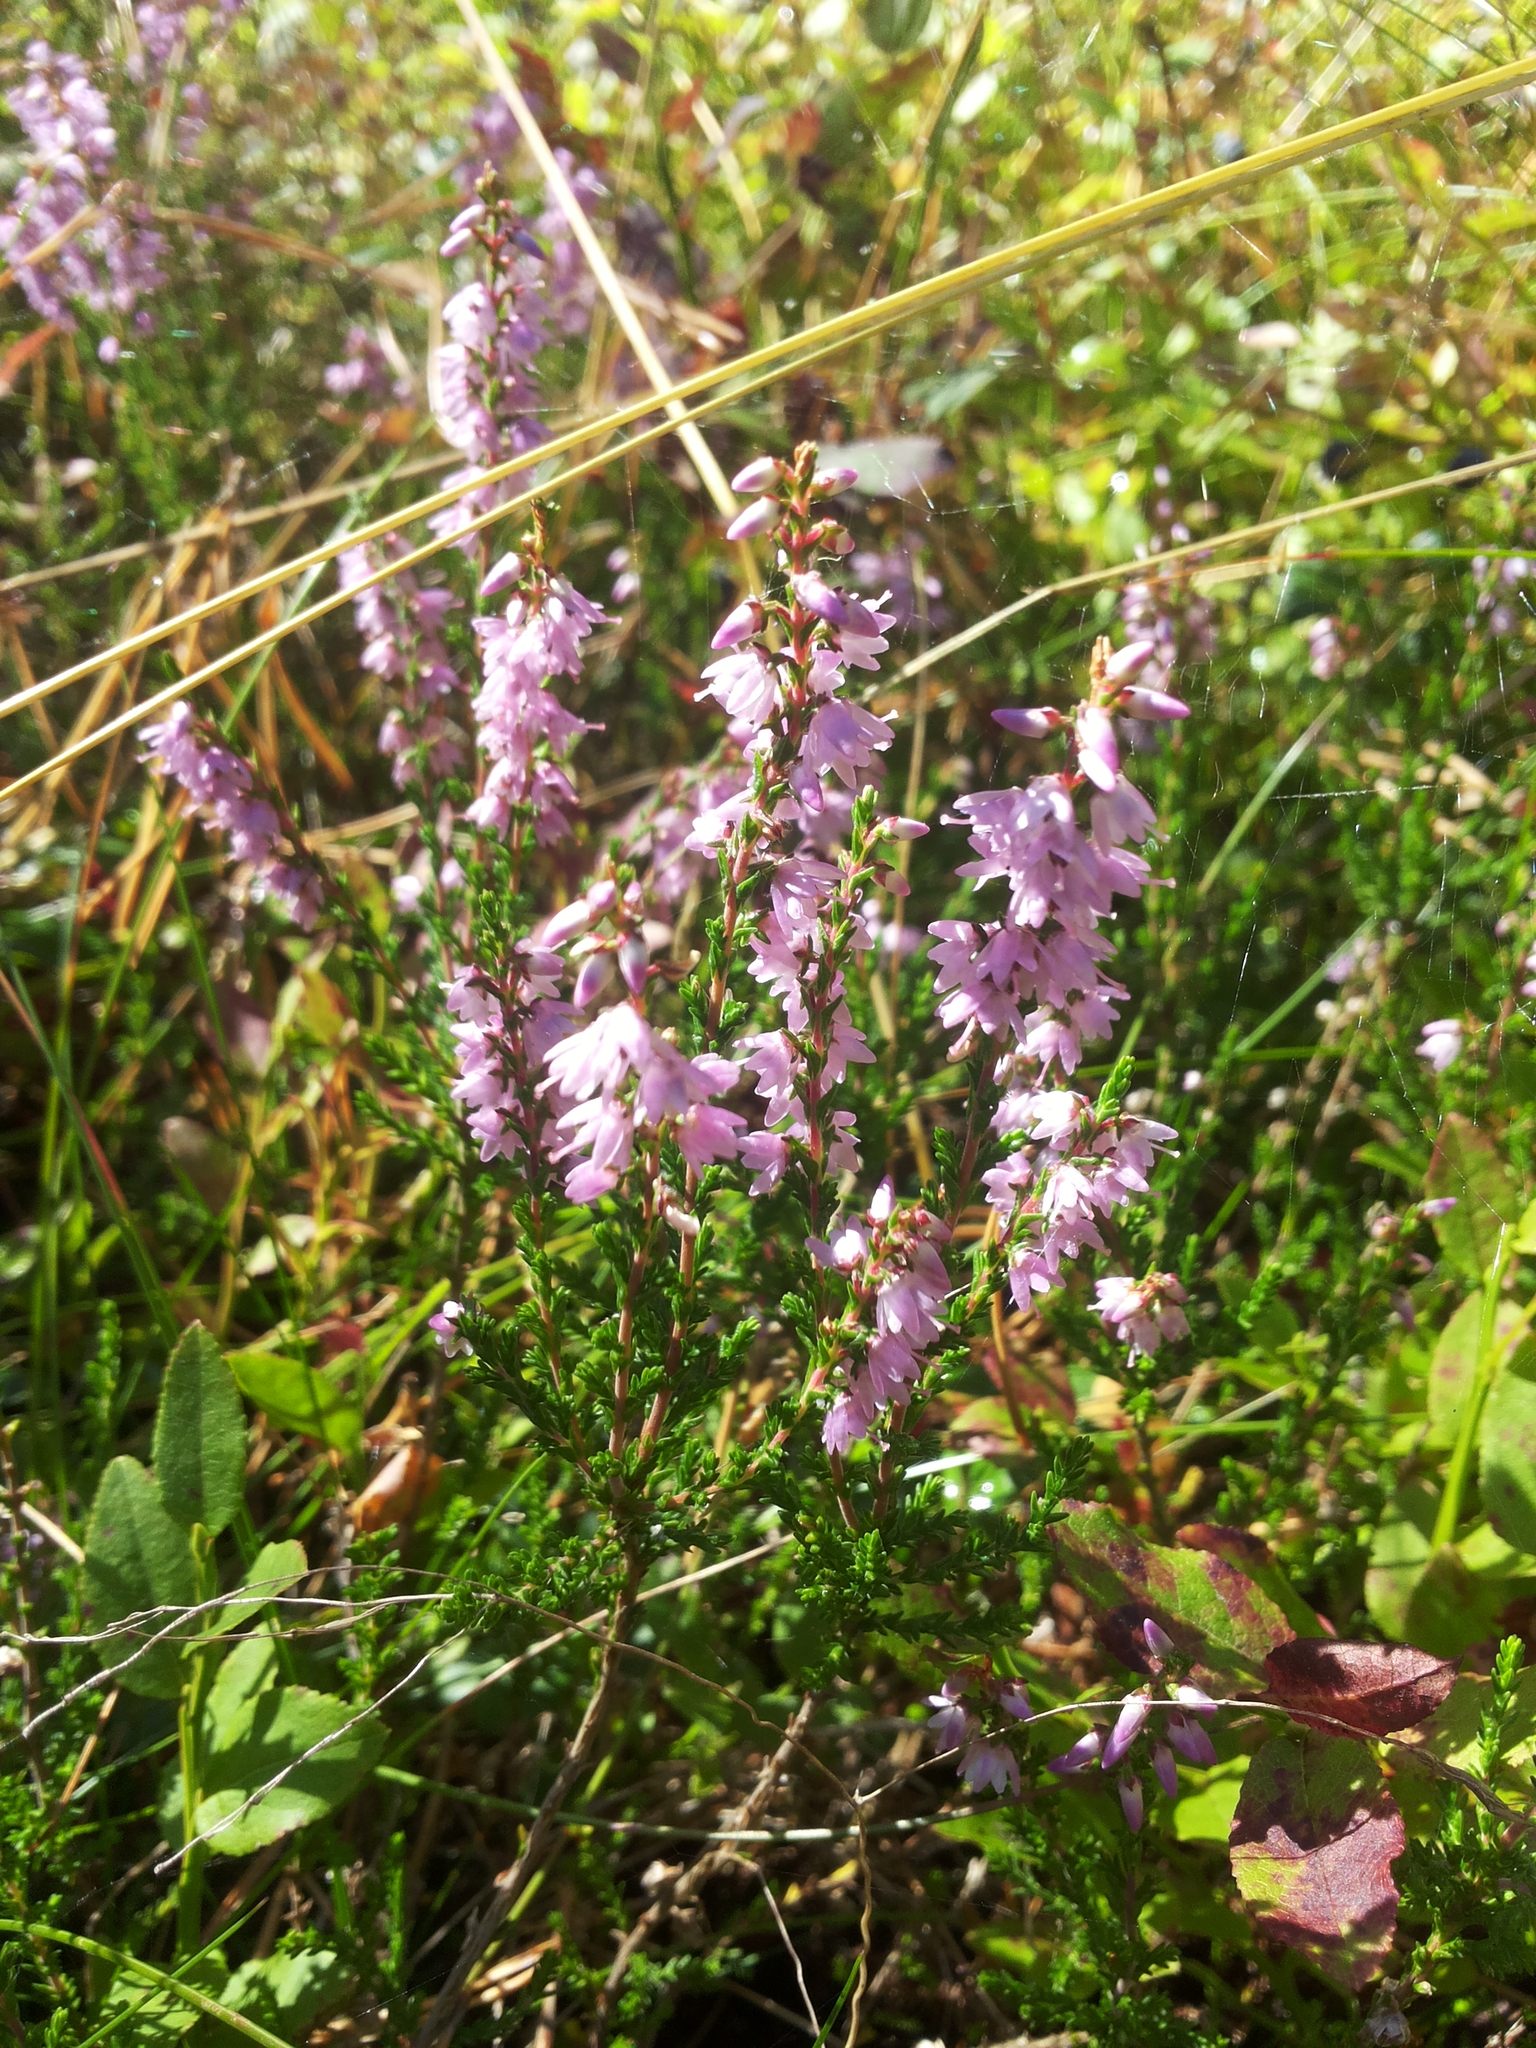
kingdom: Plantae
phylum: Tracheophyta
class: Magnoliopsida
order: Ericales
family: Ericaceae
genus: Calluna
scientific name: Calluna vulgaris
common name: Heather
